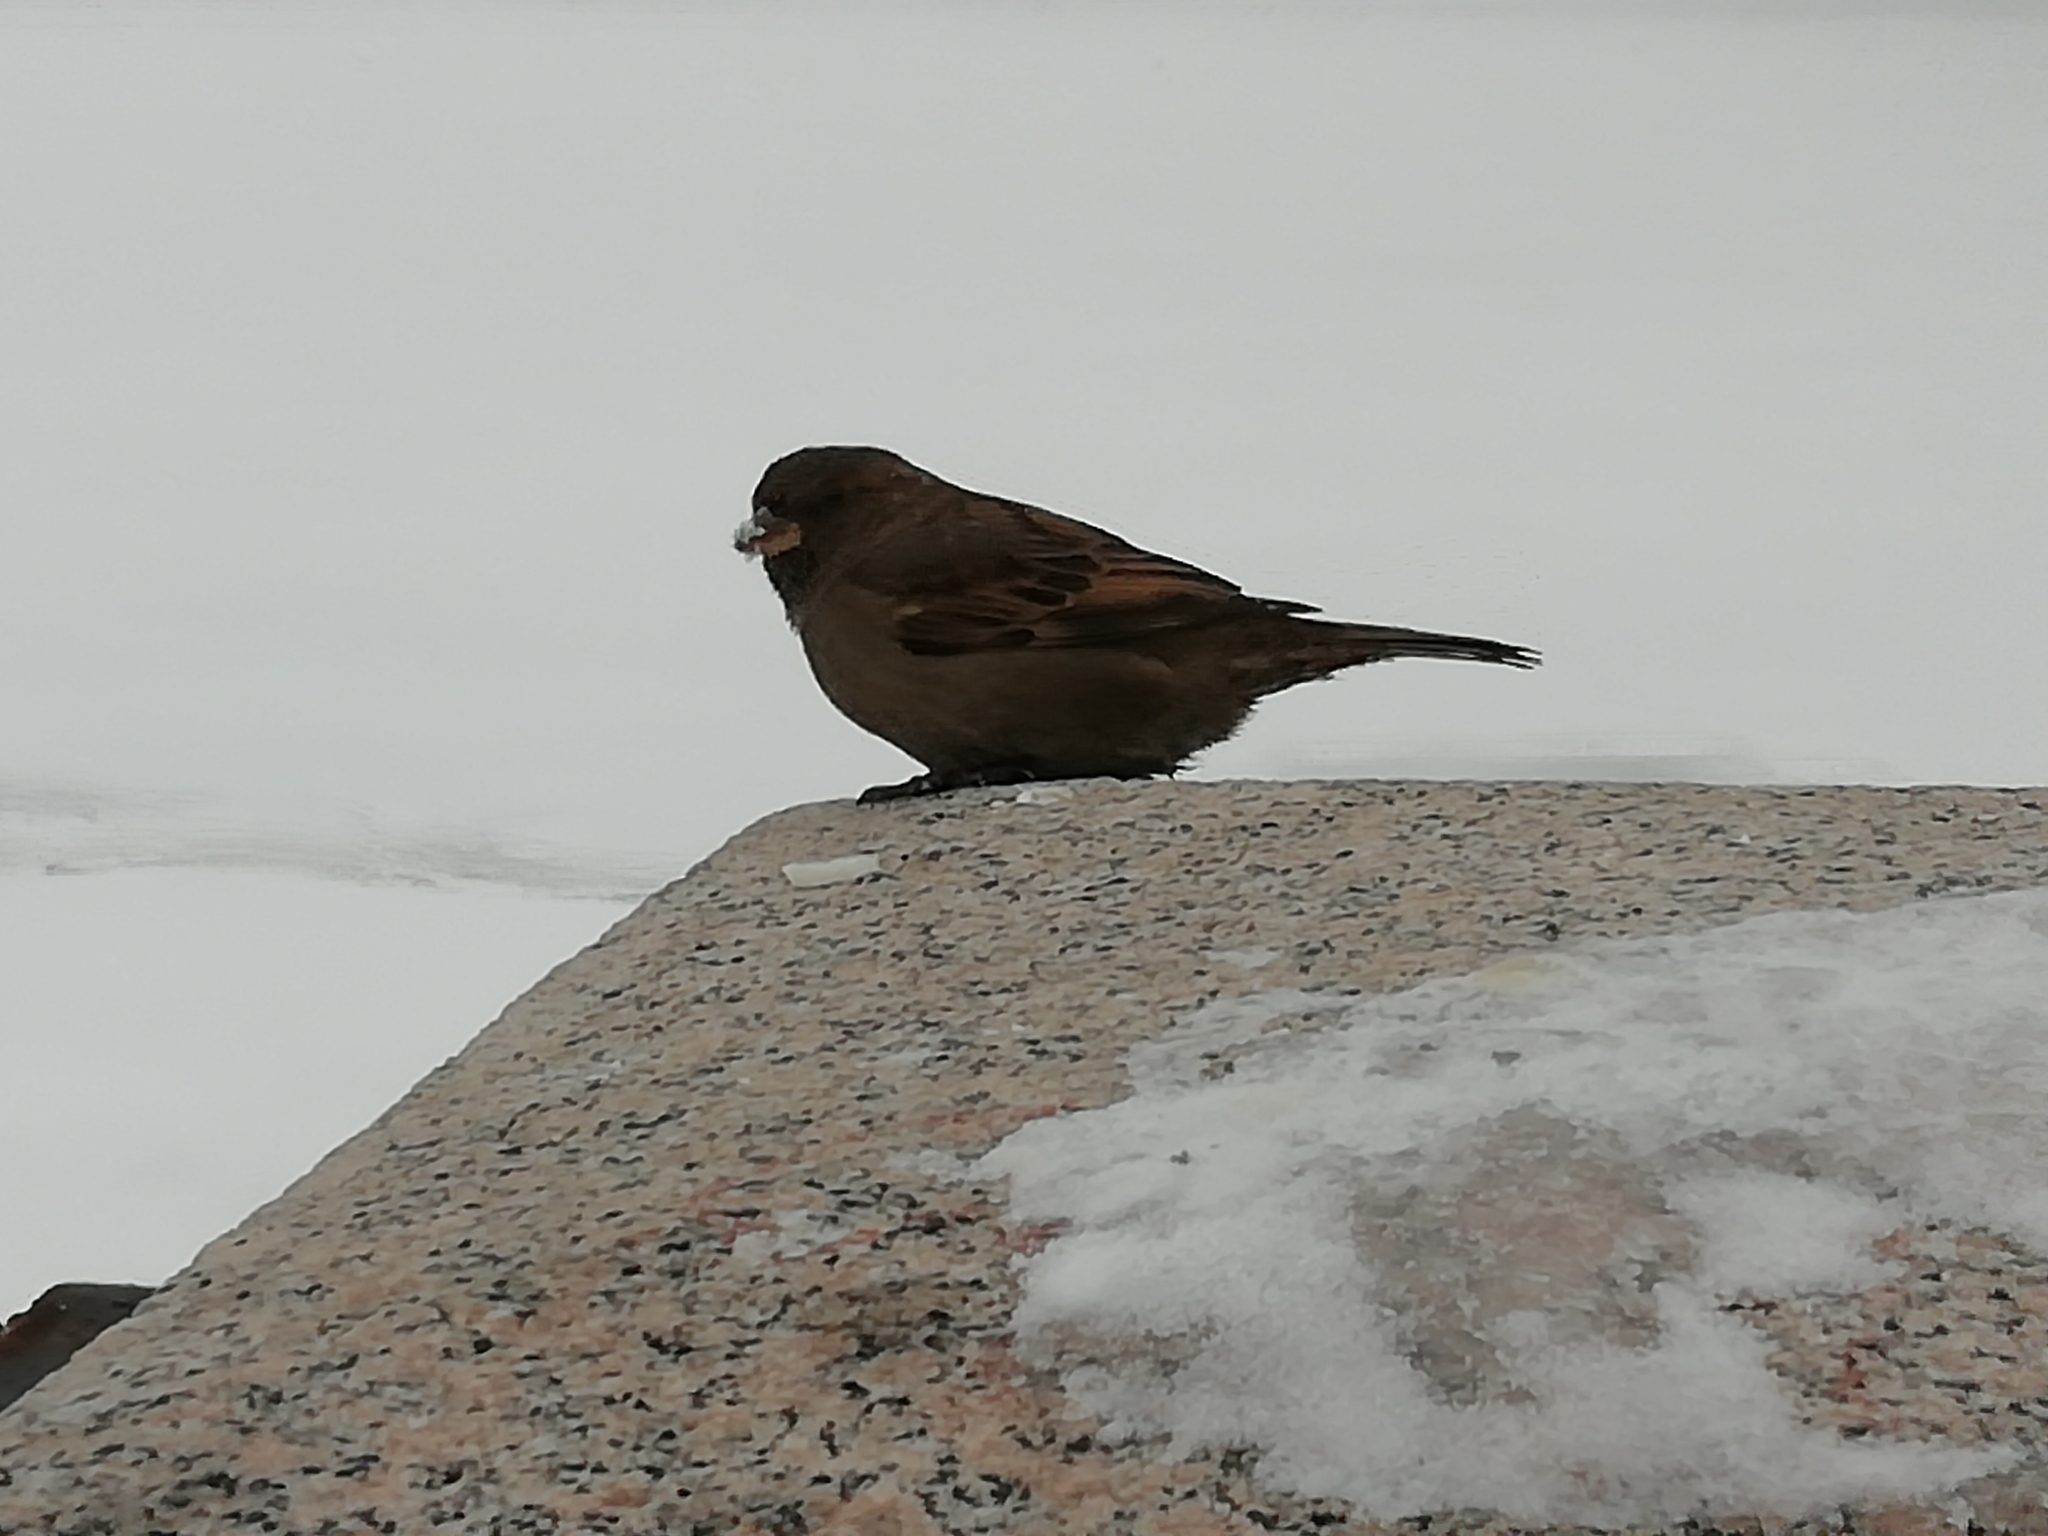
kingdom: Animalia
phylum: Chordata
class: Aves
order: Passeriformes
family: Passeridae
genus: Passer
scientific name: Passer domesticus
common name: House sparrow
